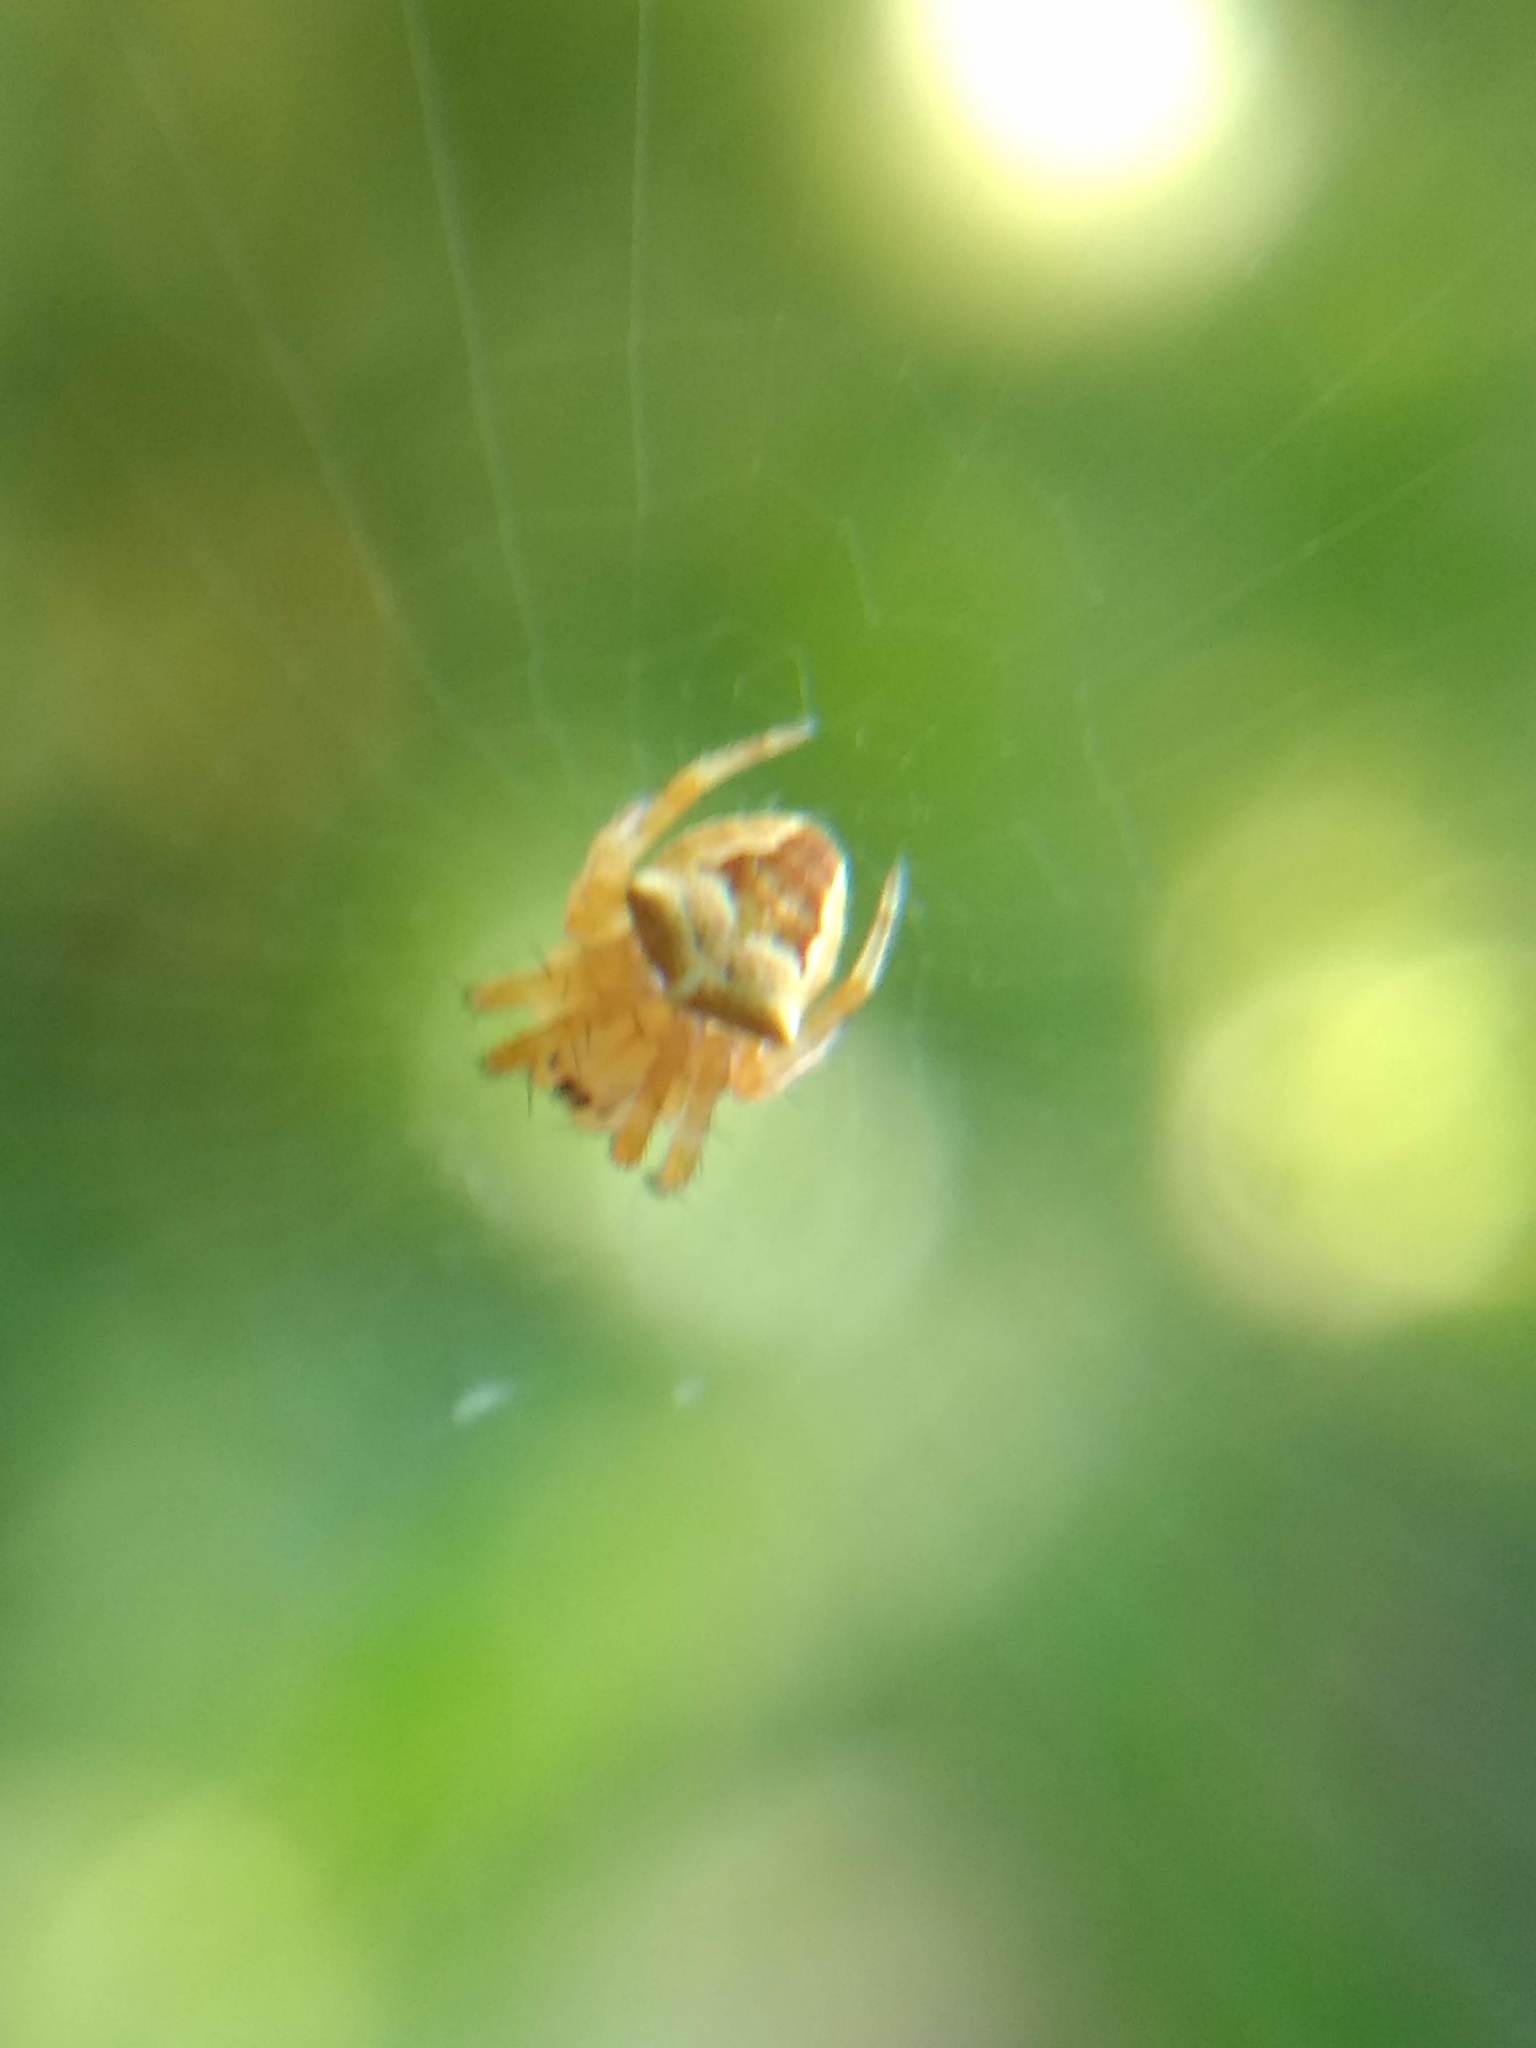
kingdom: Animalia
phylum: Arthropoda
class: Arachnida
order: Araneae
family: Araneidae
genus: Araneus
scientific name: Araneus gemmoides
